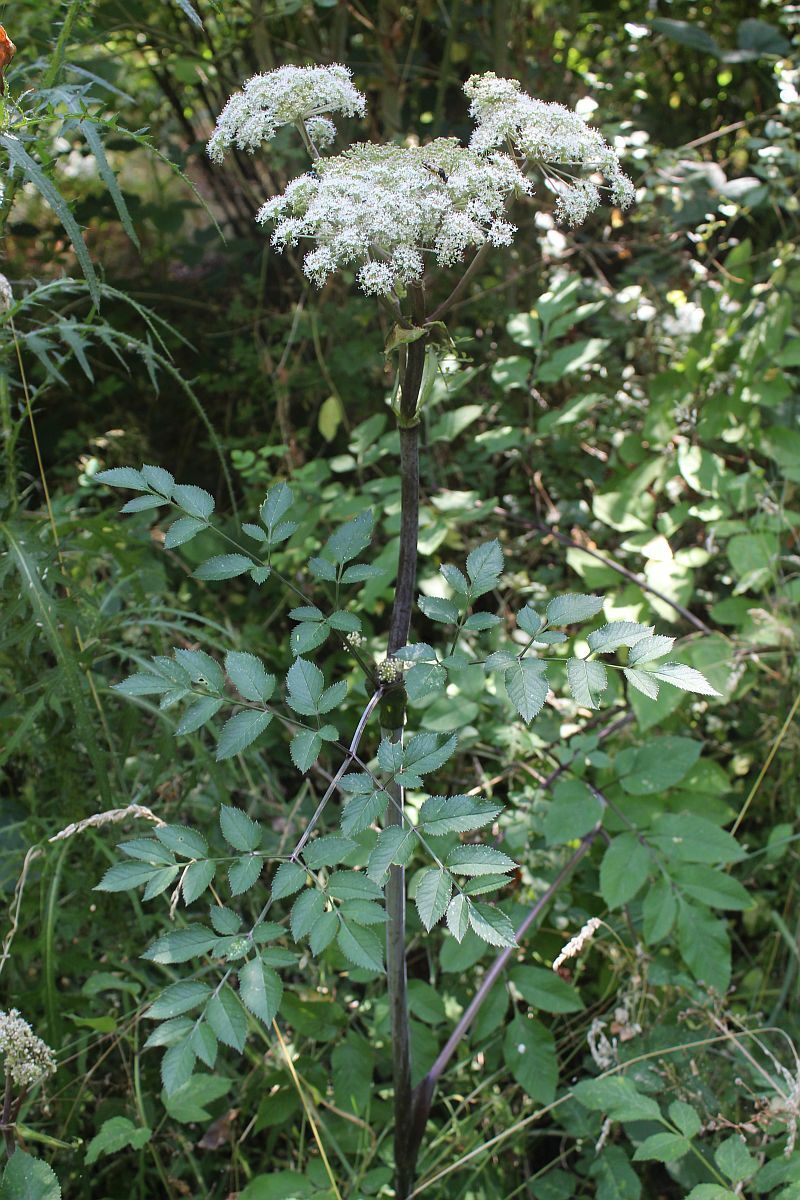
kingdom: Plantae
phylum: Tracheophyta
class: Magnoliopsida
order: Apiales
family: Apiaceae
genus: Angelica
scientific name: Angelica sylvestris
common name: Wild angelica
